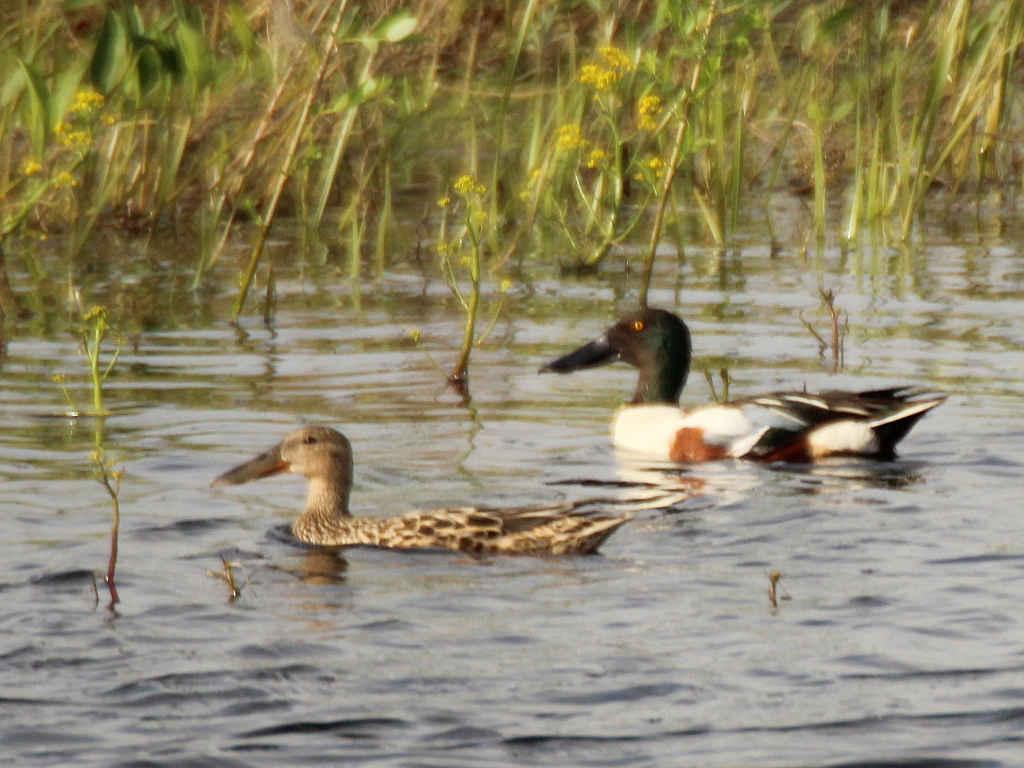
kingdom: Animalia
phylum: Chordata
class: Aves
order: Anseriformes
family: Anatidae
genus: Spatula
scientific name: Spatula clypeata
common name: Northern shoveler
